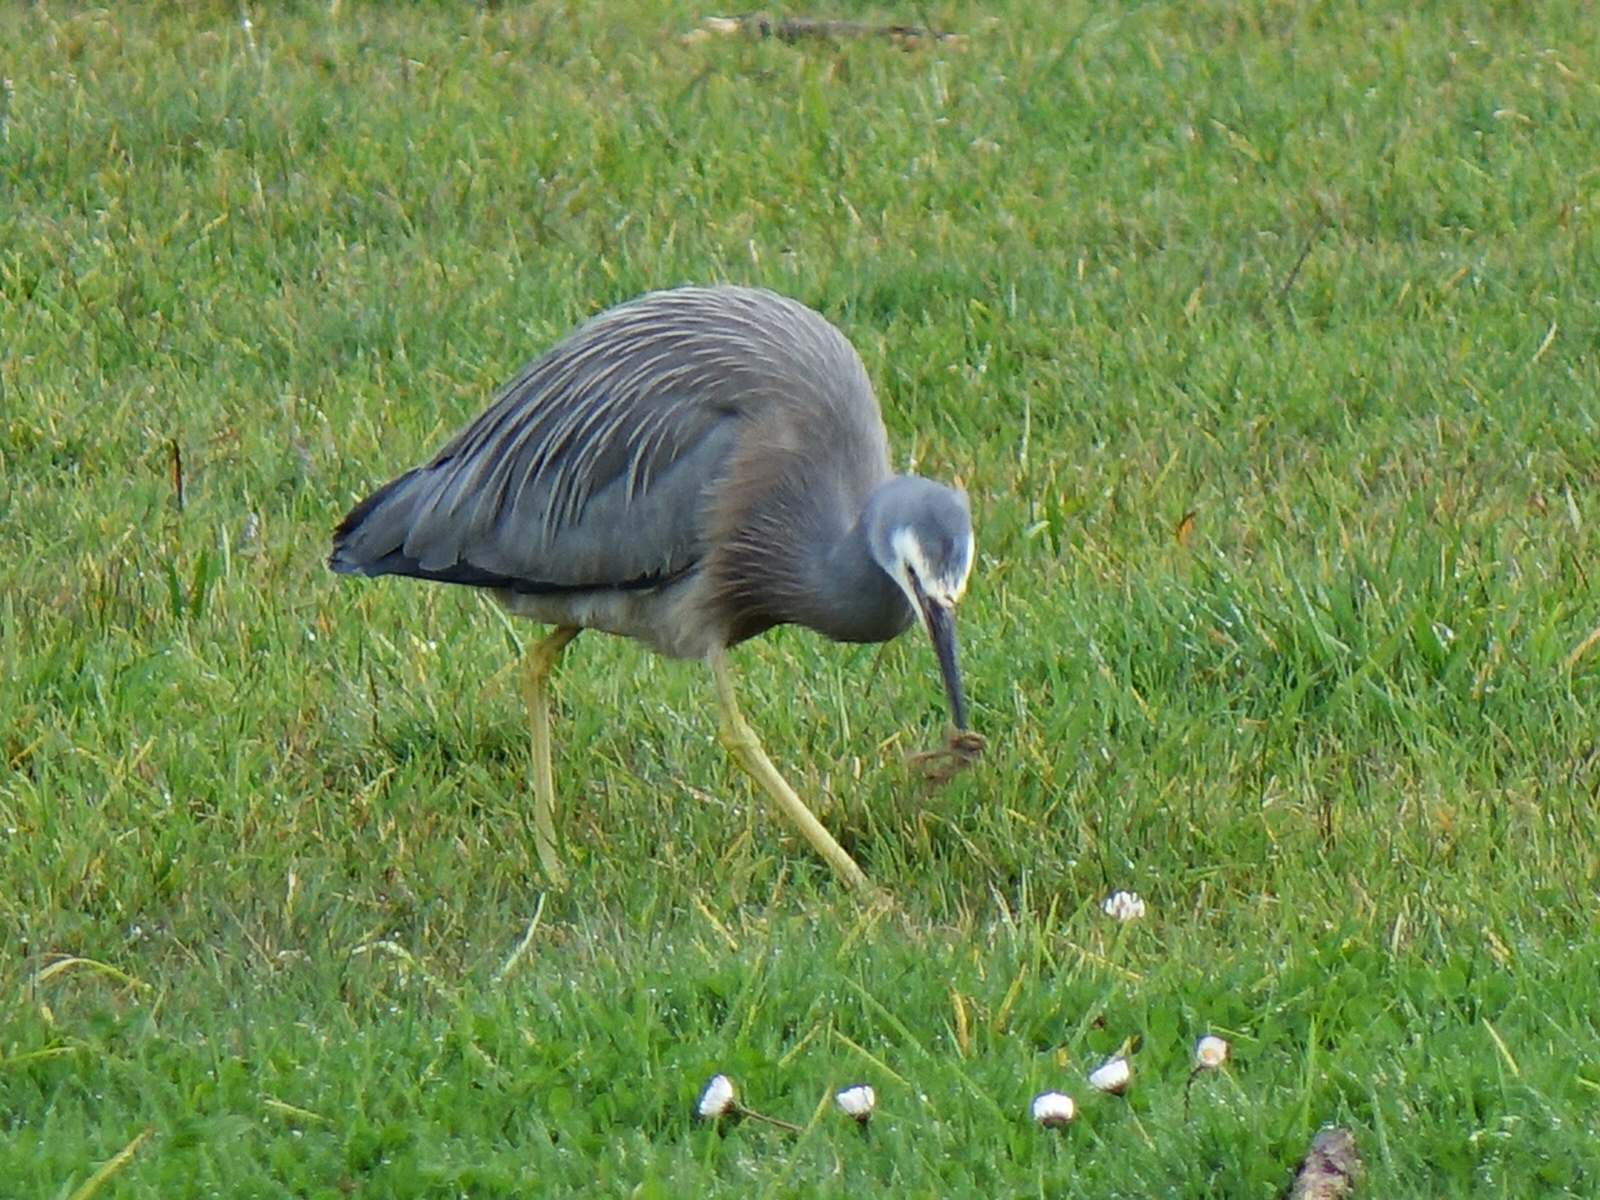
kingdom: Animalia
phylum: Chordata
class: Aves
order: Pelecaniformes
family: Ardeidae
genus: Egretta
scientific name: Egretta novaehollandiae
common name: White-faced heron
